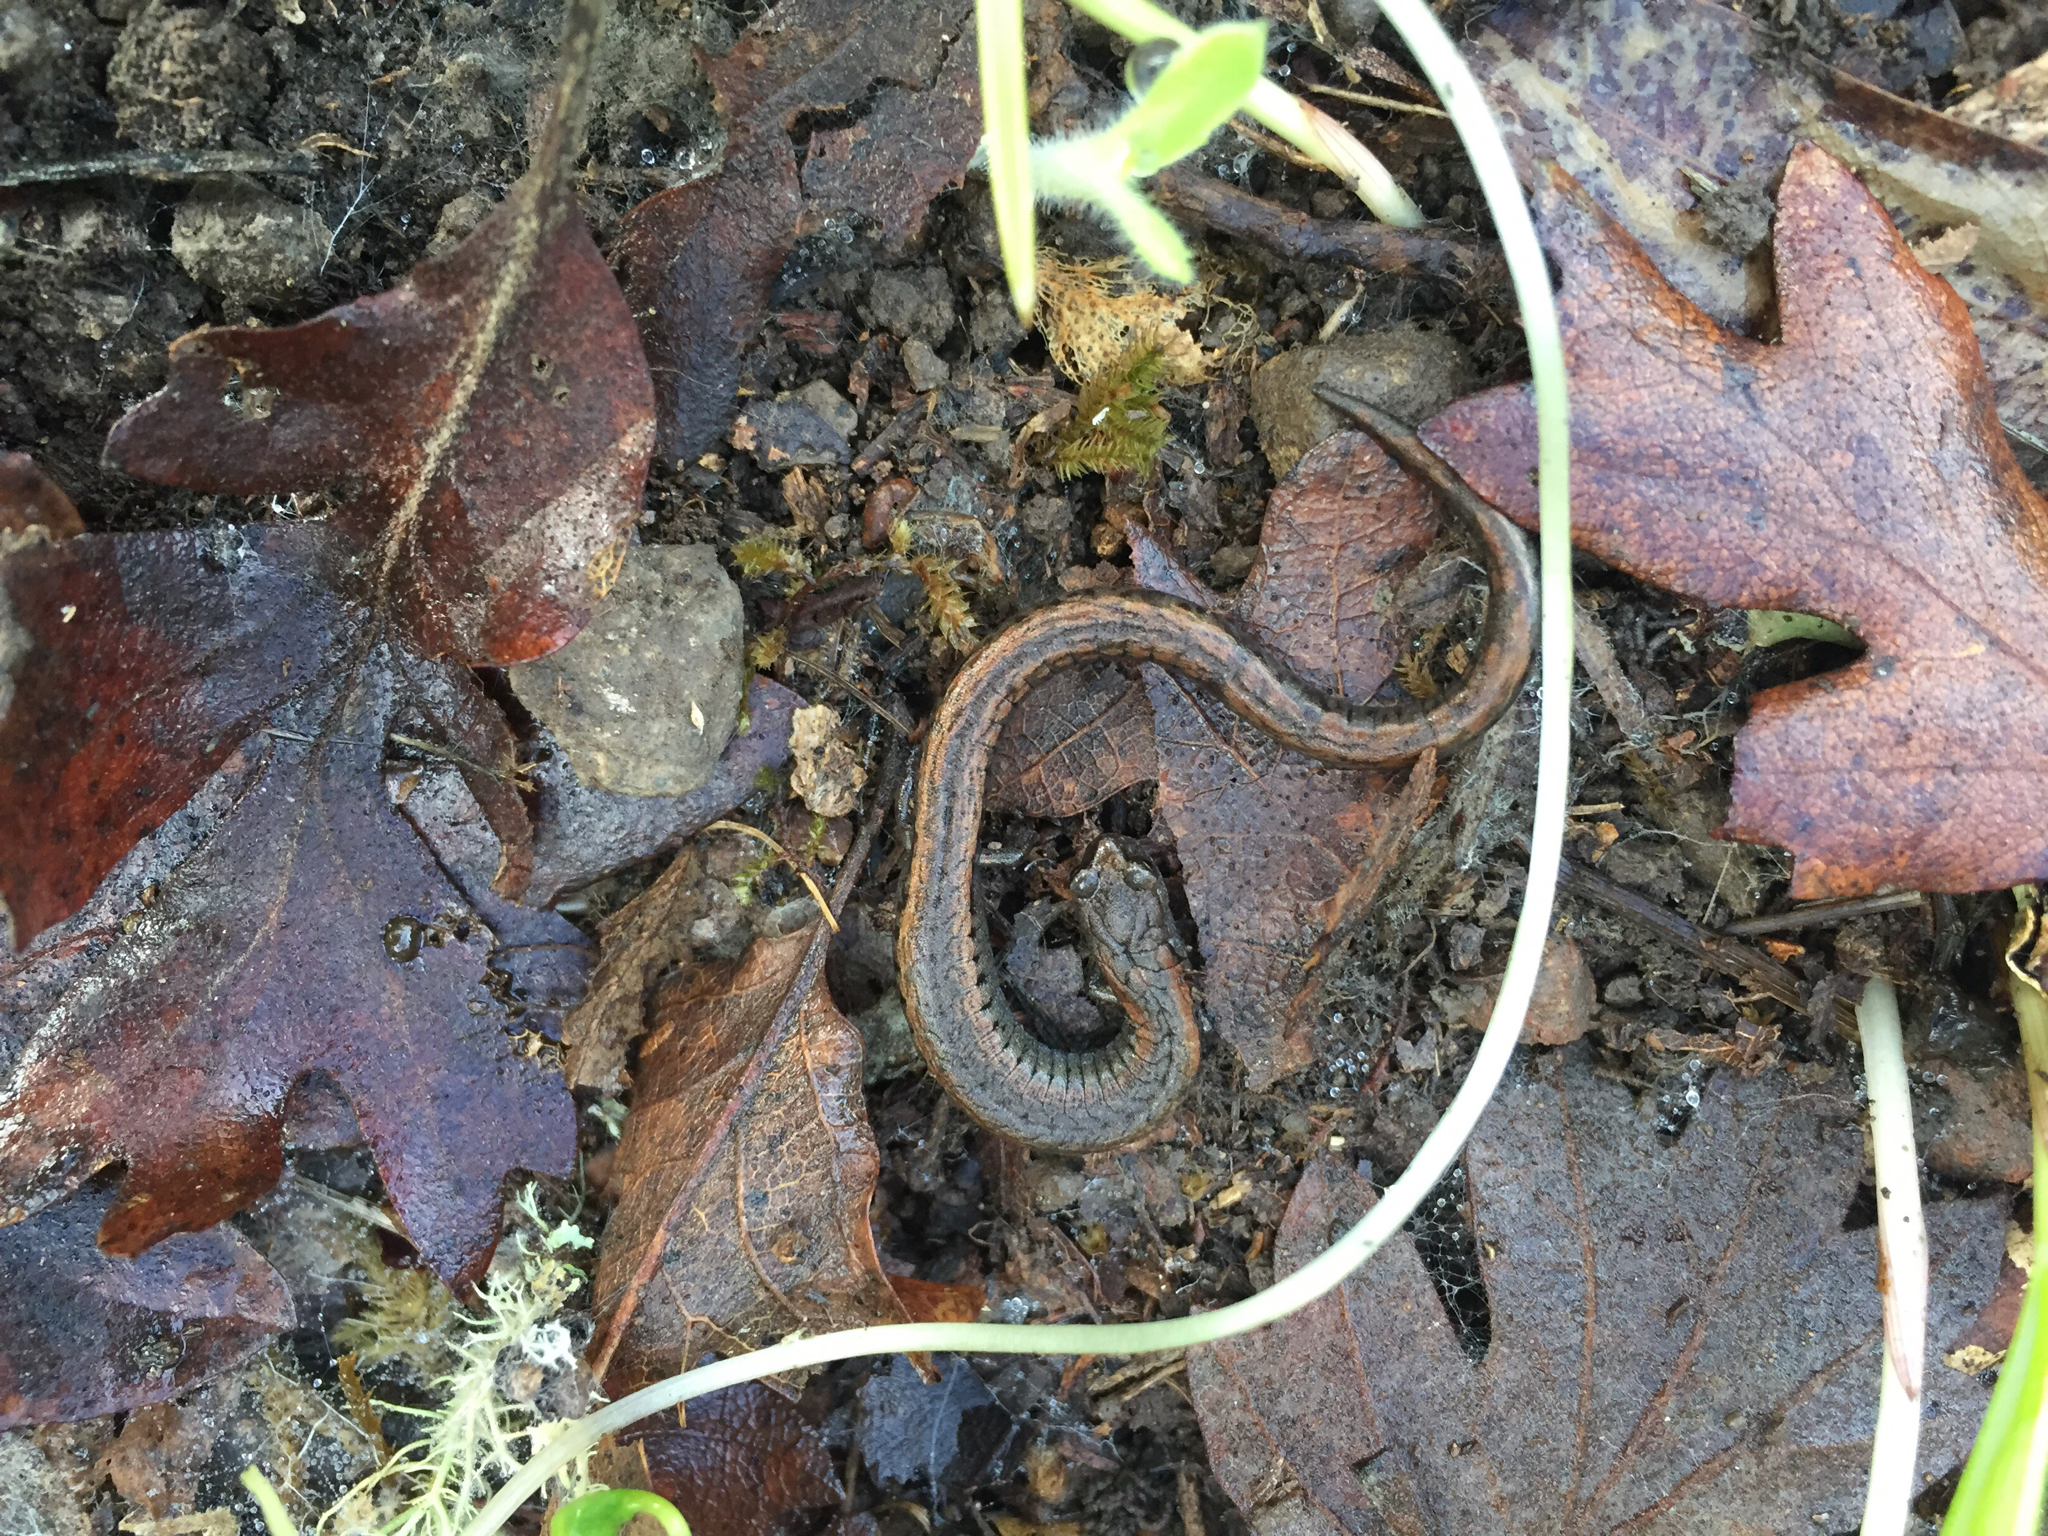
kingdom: Animalia
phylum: Chordata
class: Amphibia
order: Caudata
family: Plethodontidae
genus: Batrachoseps
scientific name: Batrachoseps attenuatus
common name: California slender salamander
